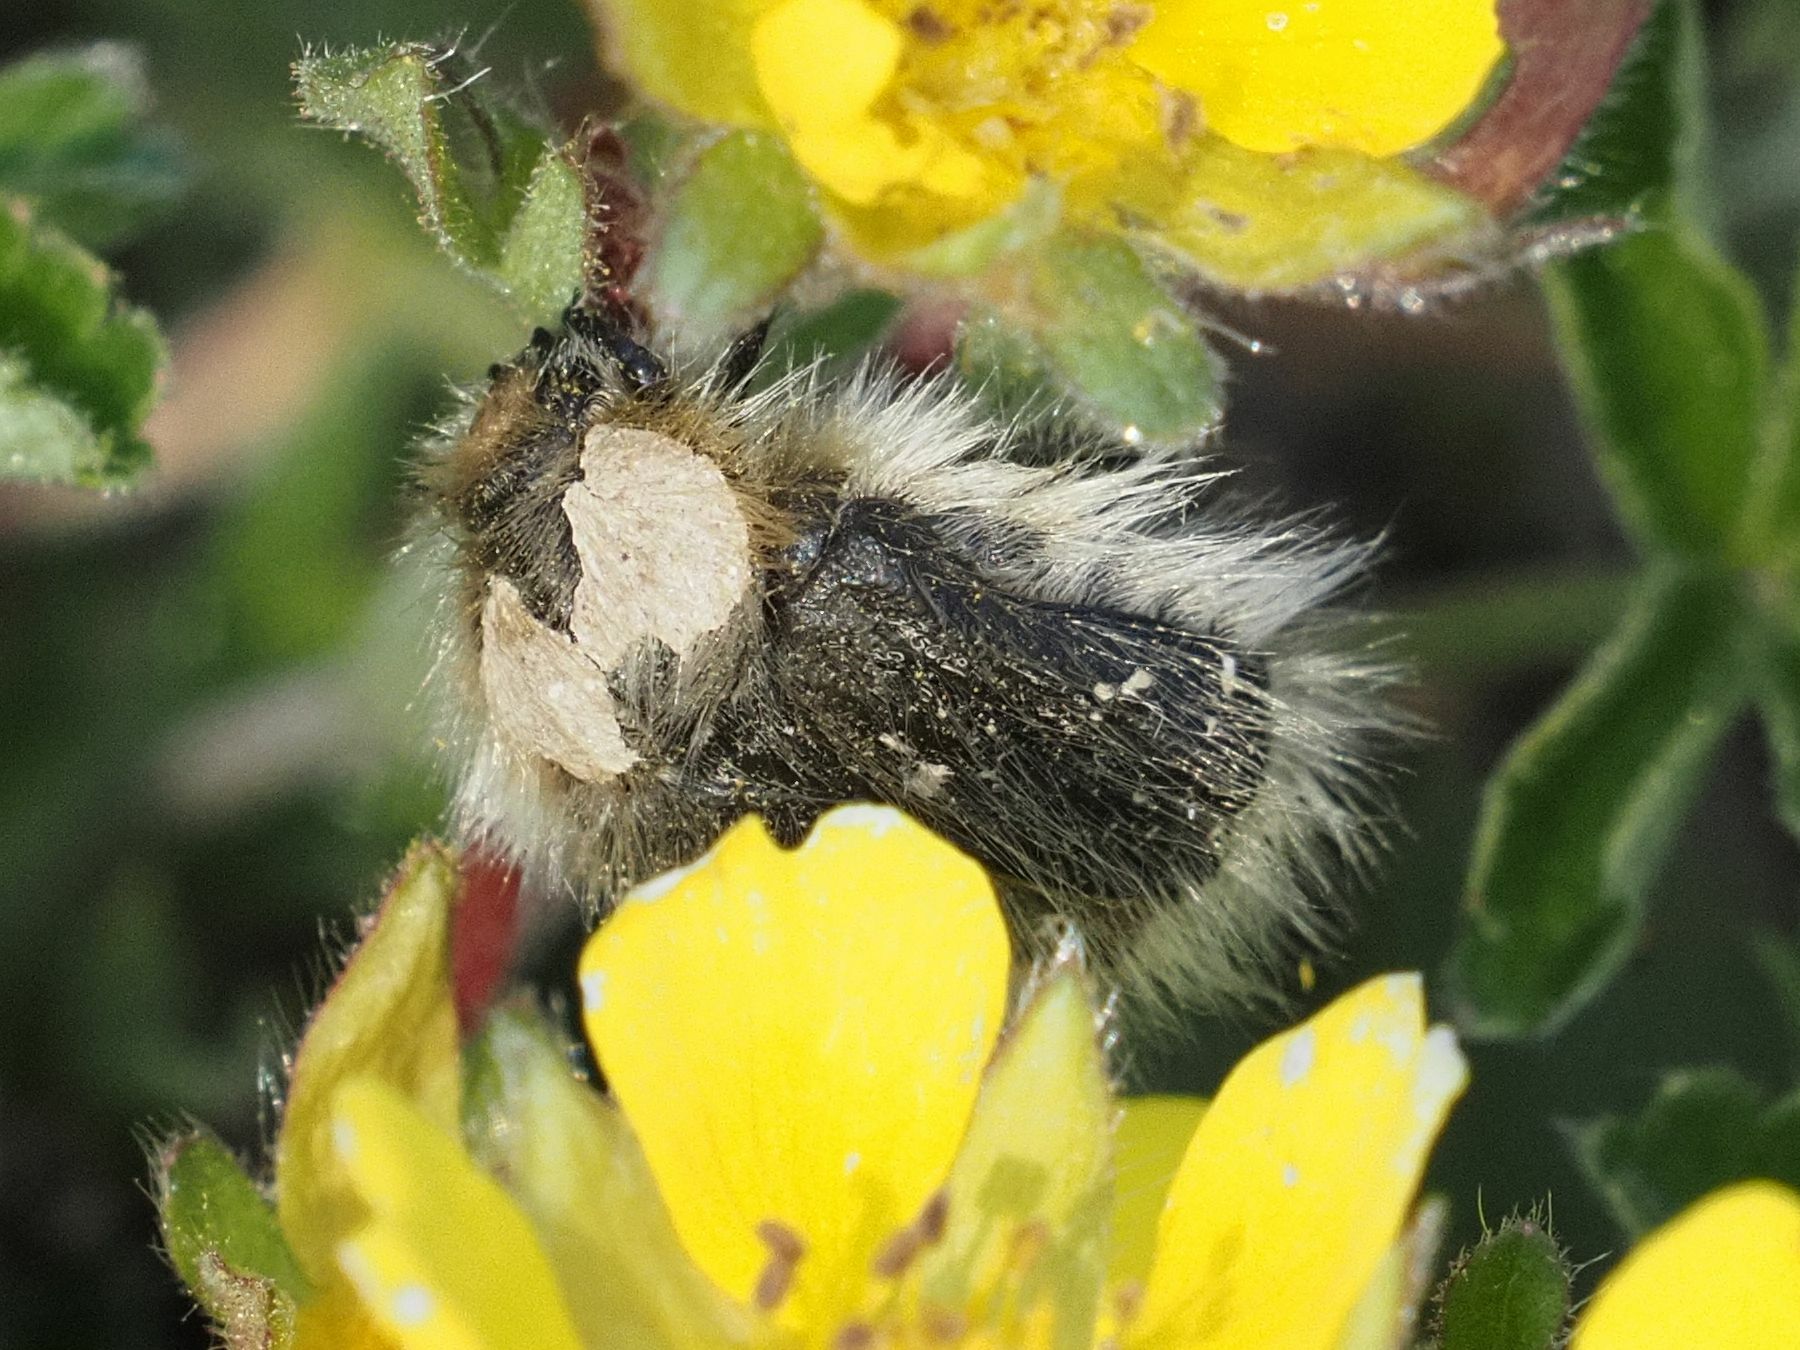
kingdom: Animalia
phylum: Arthropoda
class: Insecta
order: Coleoptera
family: Scarabaeidae
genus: Tropinota
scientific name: Tropinota hirta
